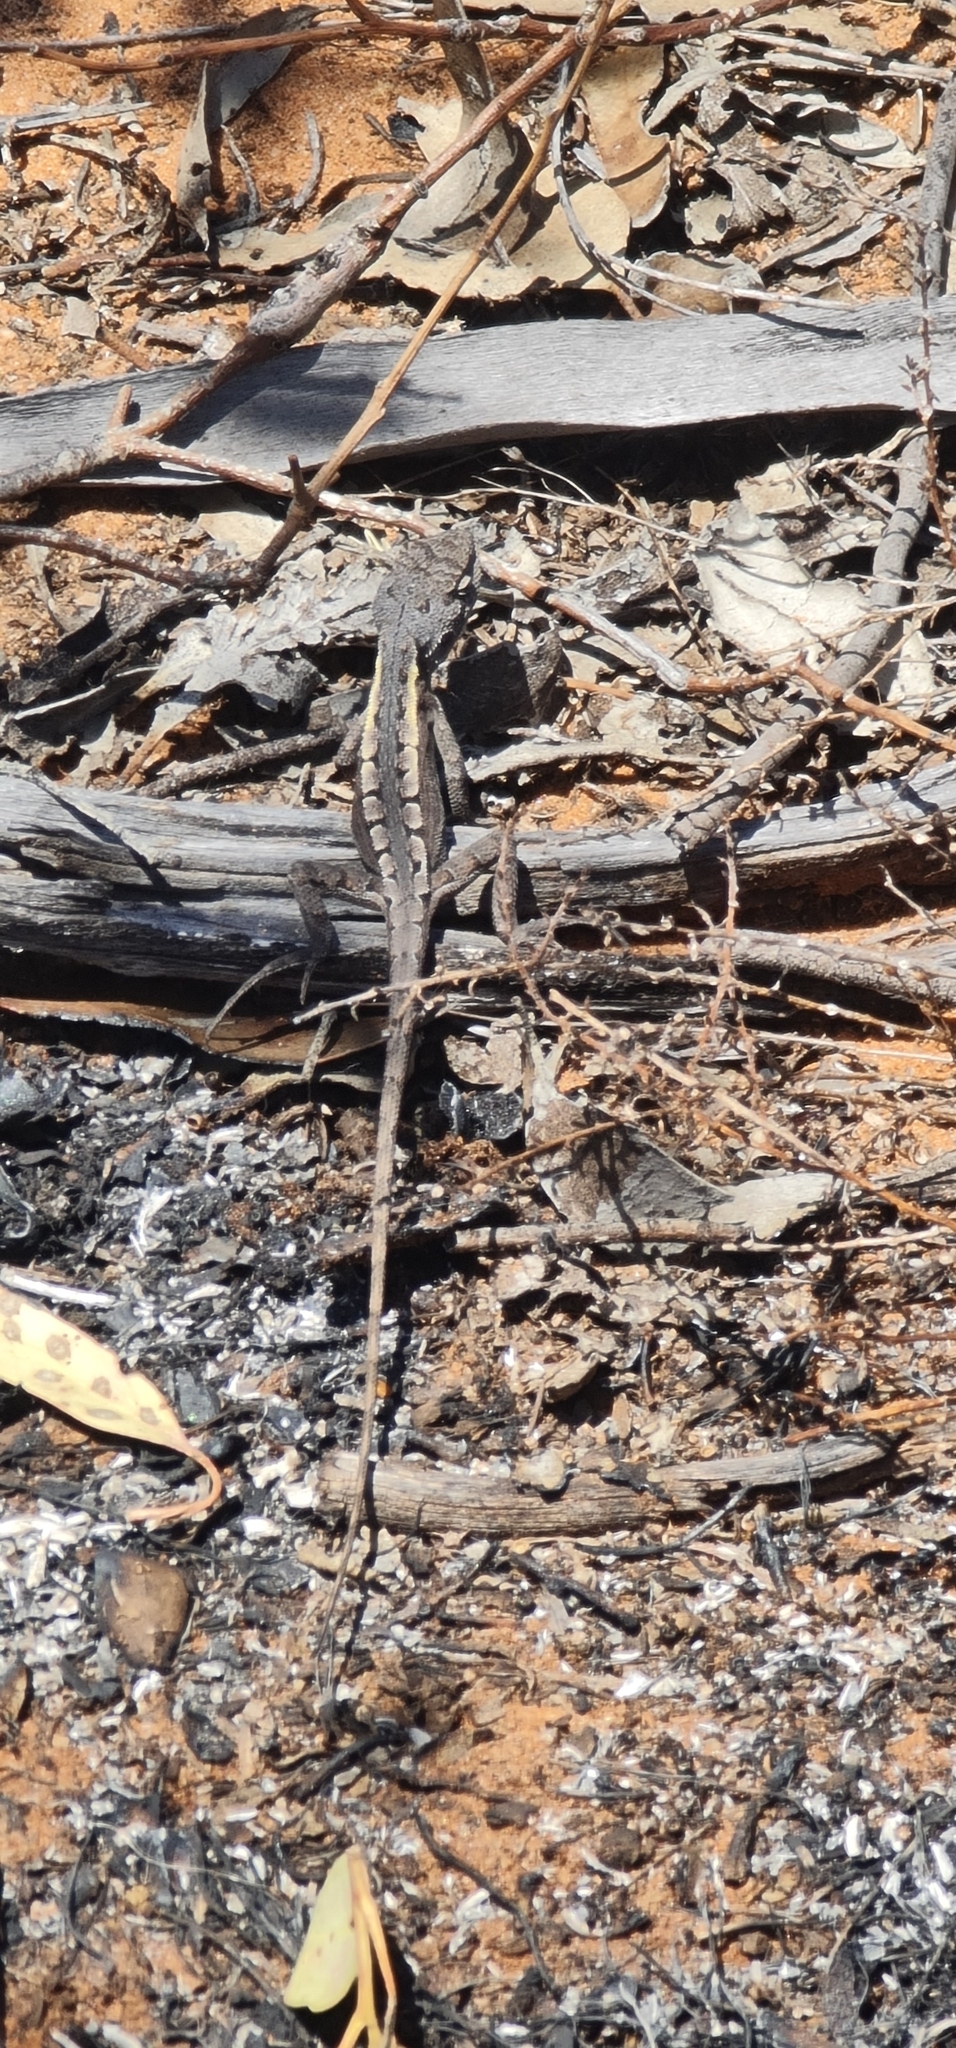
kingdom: Animalia
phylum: Chordata
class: Squamata
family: Agamidae
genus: Diporiphora
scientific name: Diporiphora nobbi
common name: Nobbi
